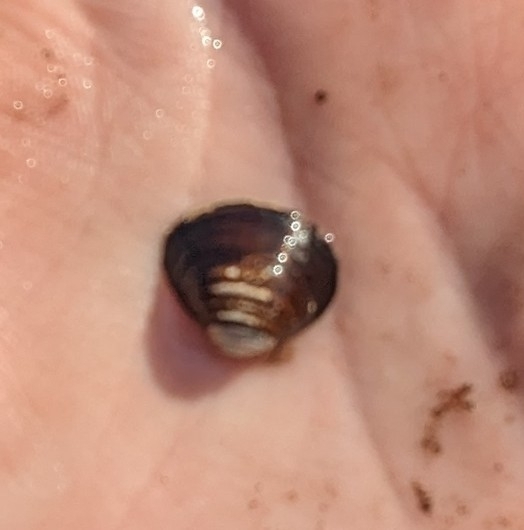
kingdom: Animalia
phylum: Mollusca
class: Bivalvia
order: Venerida
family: Cyrenidae
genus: Corbicula
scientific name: Corbicula fluminea
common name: Asian clam
